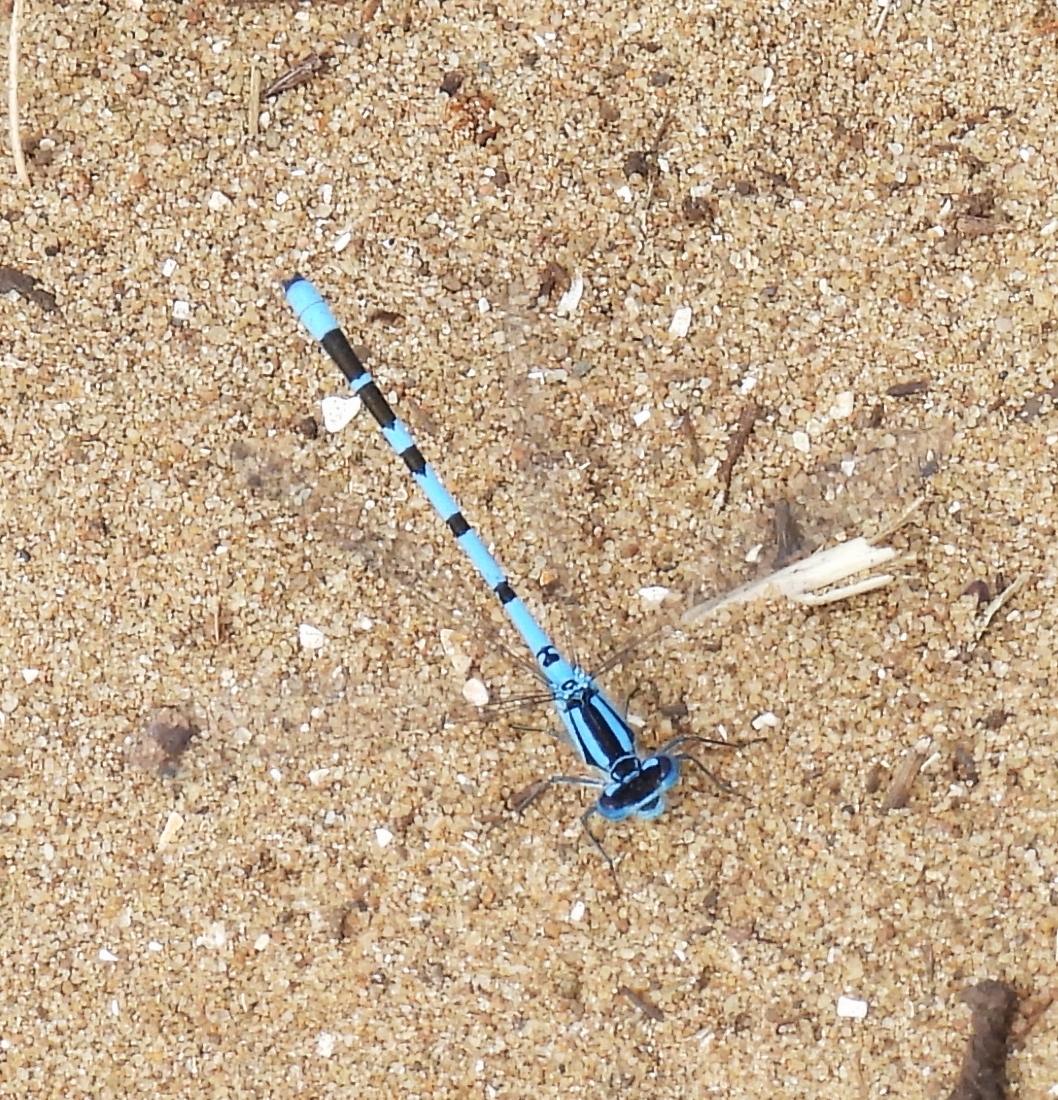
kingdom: Animalia
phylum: Arthropoda
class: Insecta
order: Odonata
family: Coenagrionidae
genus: Enallagma
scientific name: Enallagma cyathigerum
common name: Common blue damselfly
